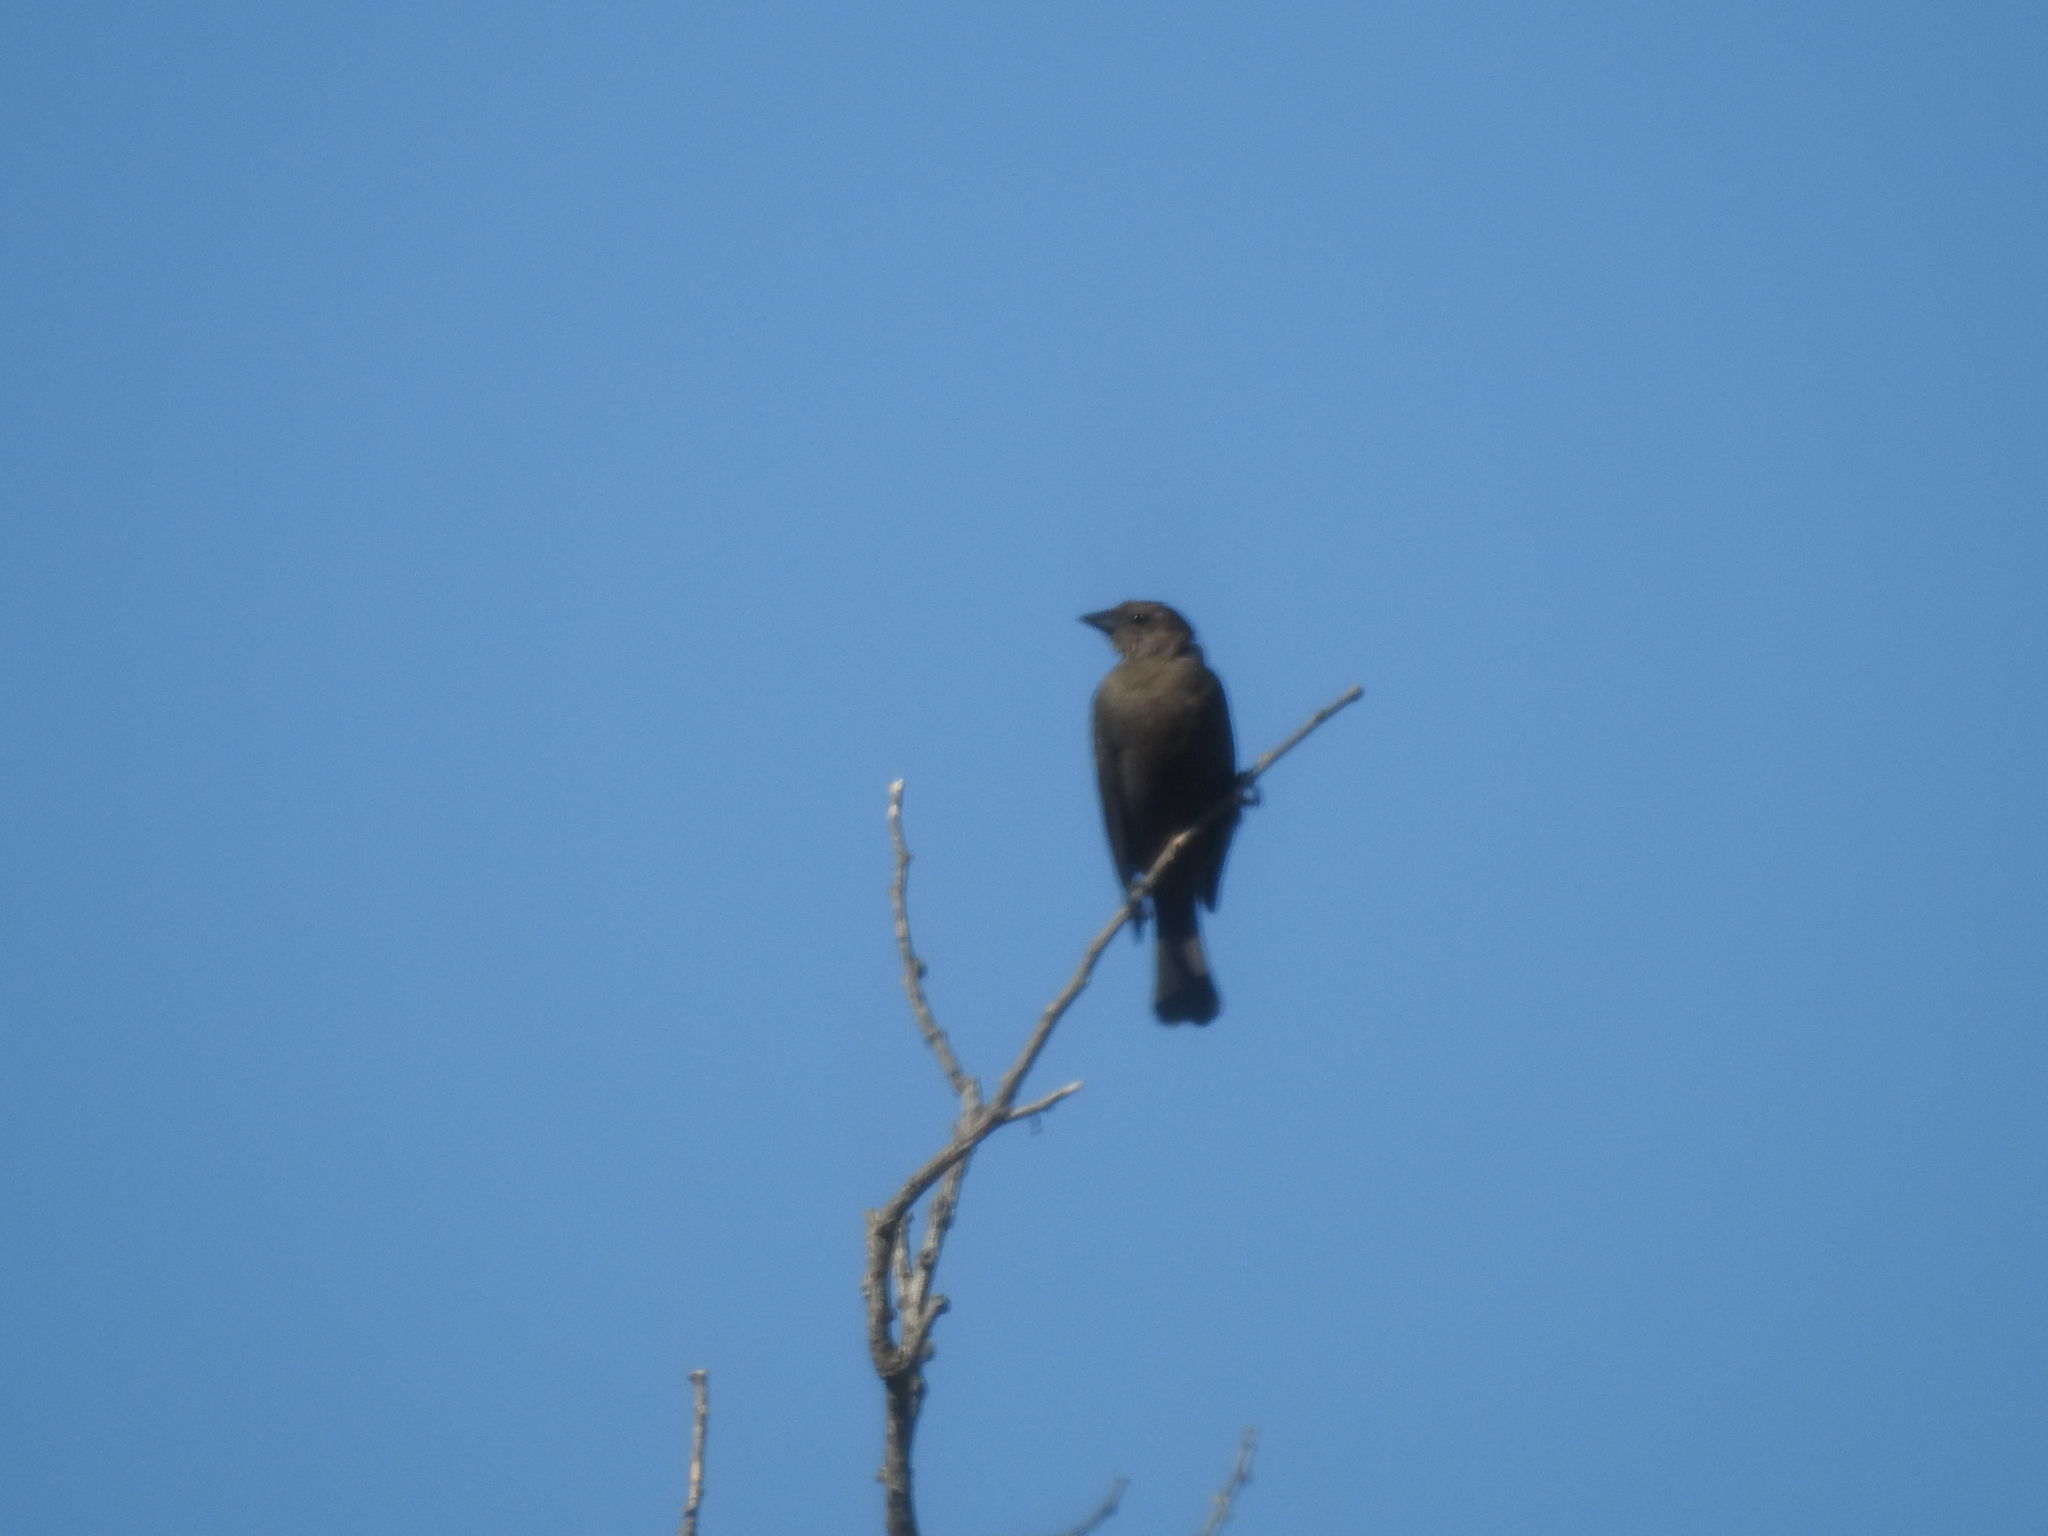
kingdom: Animalia
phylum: Chordata
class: Aves
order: Passeriformes
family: Icteridae
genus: Molothrus
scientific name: Molothrus bonariensis
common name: Shiny cowbird
